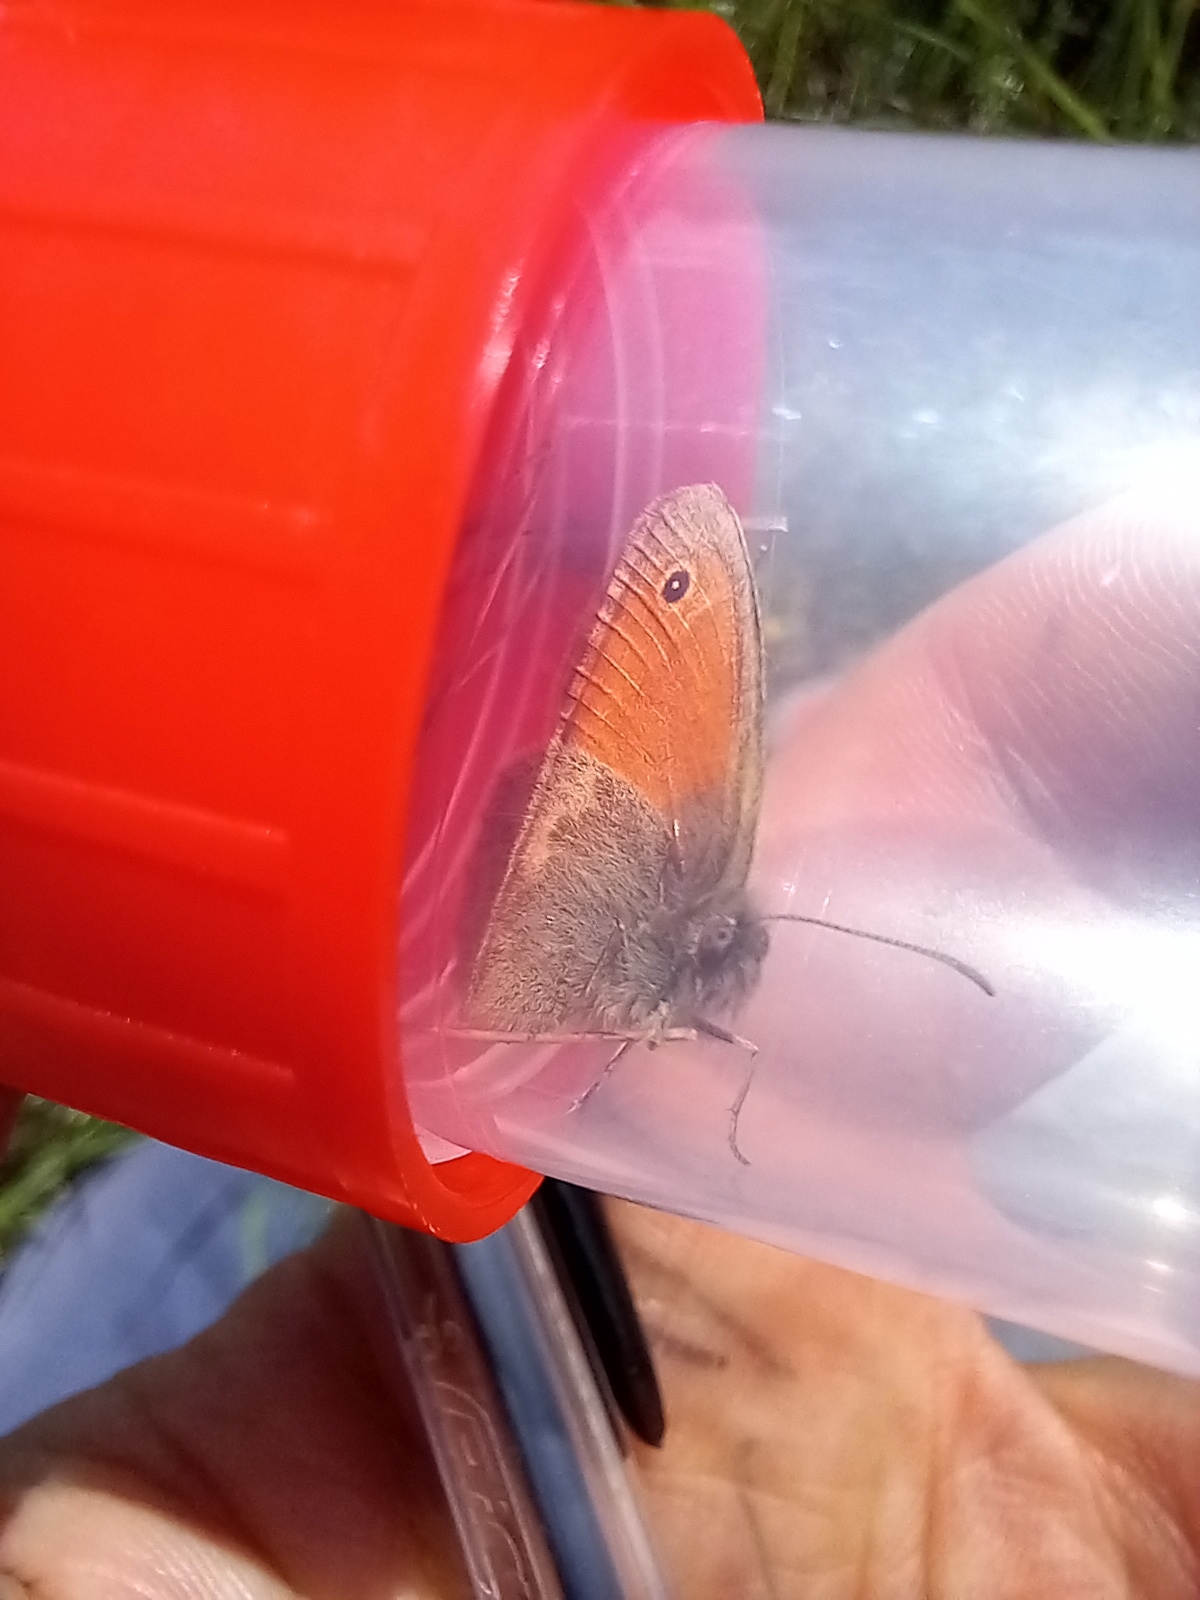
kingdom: Animalia
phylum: Arthropoda
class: Insecta
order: Lepidoptera
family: Nymphalidae
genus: Coenonympha
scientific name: Coenonympha pamphilus
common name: Small heath
